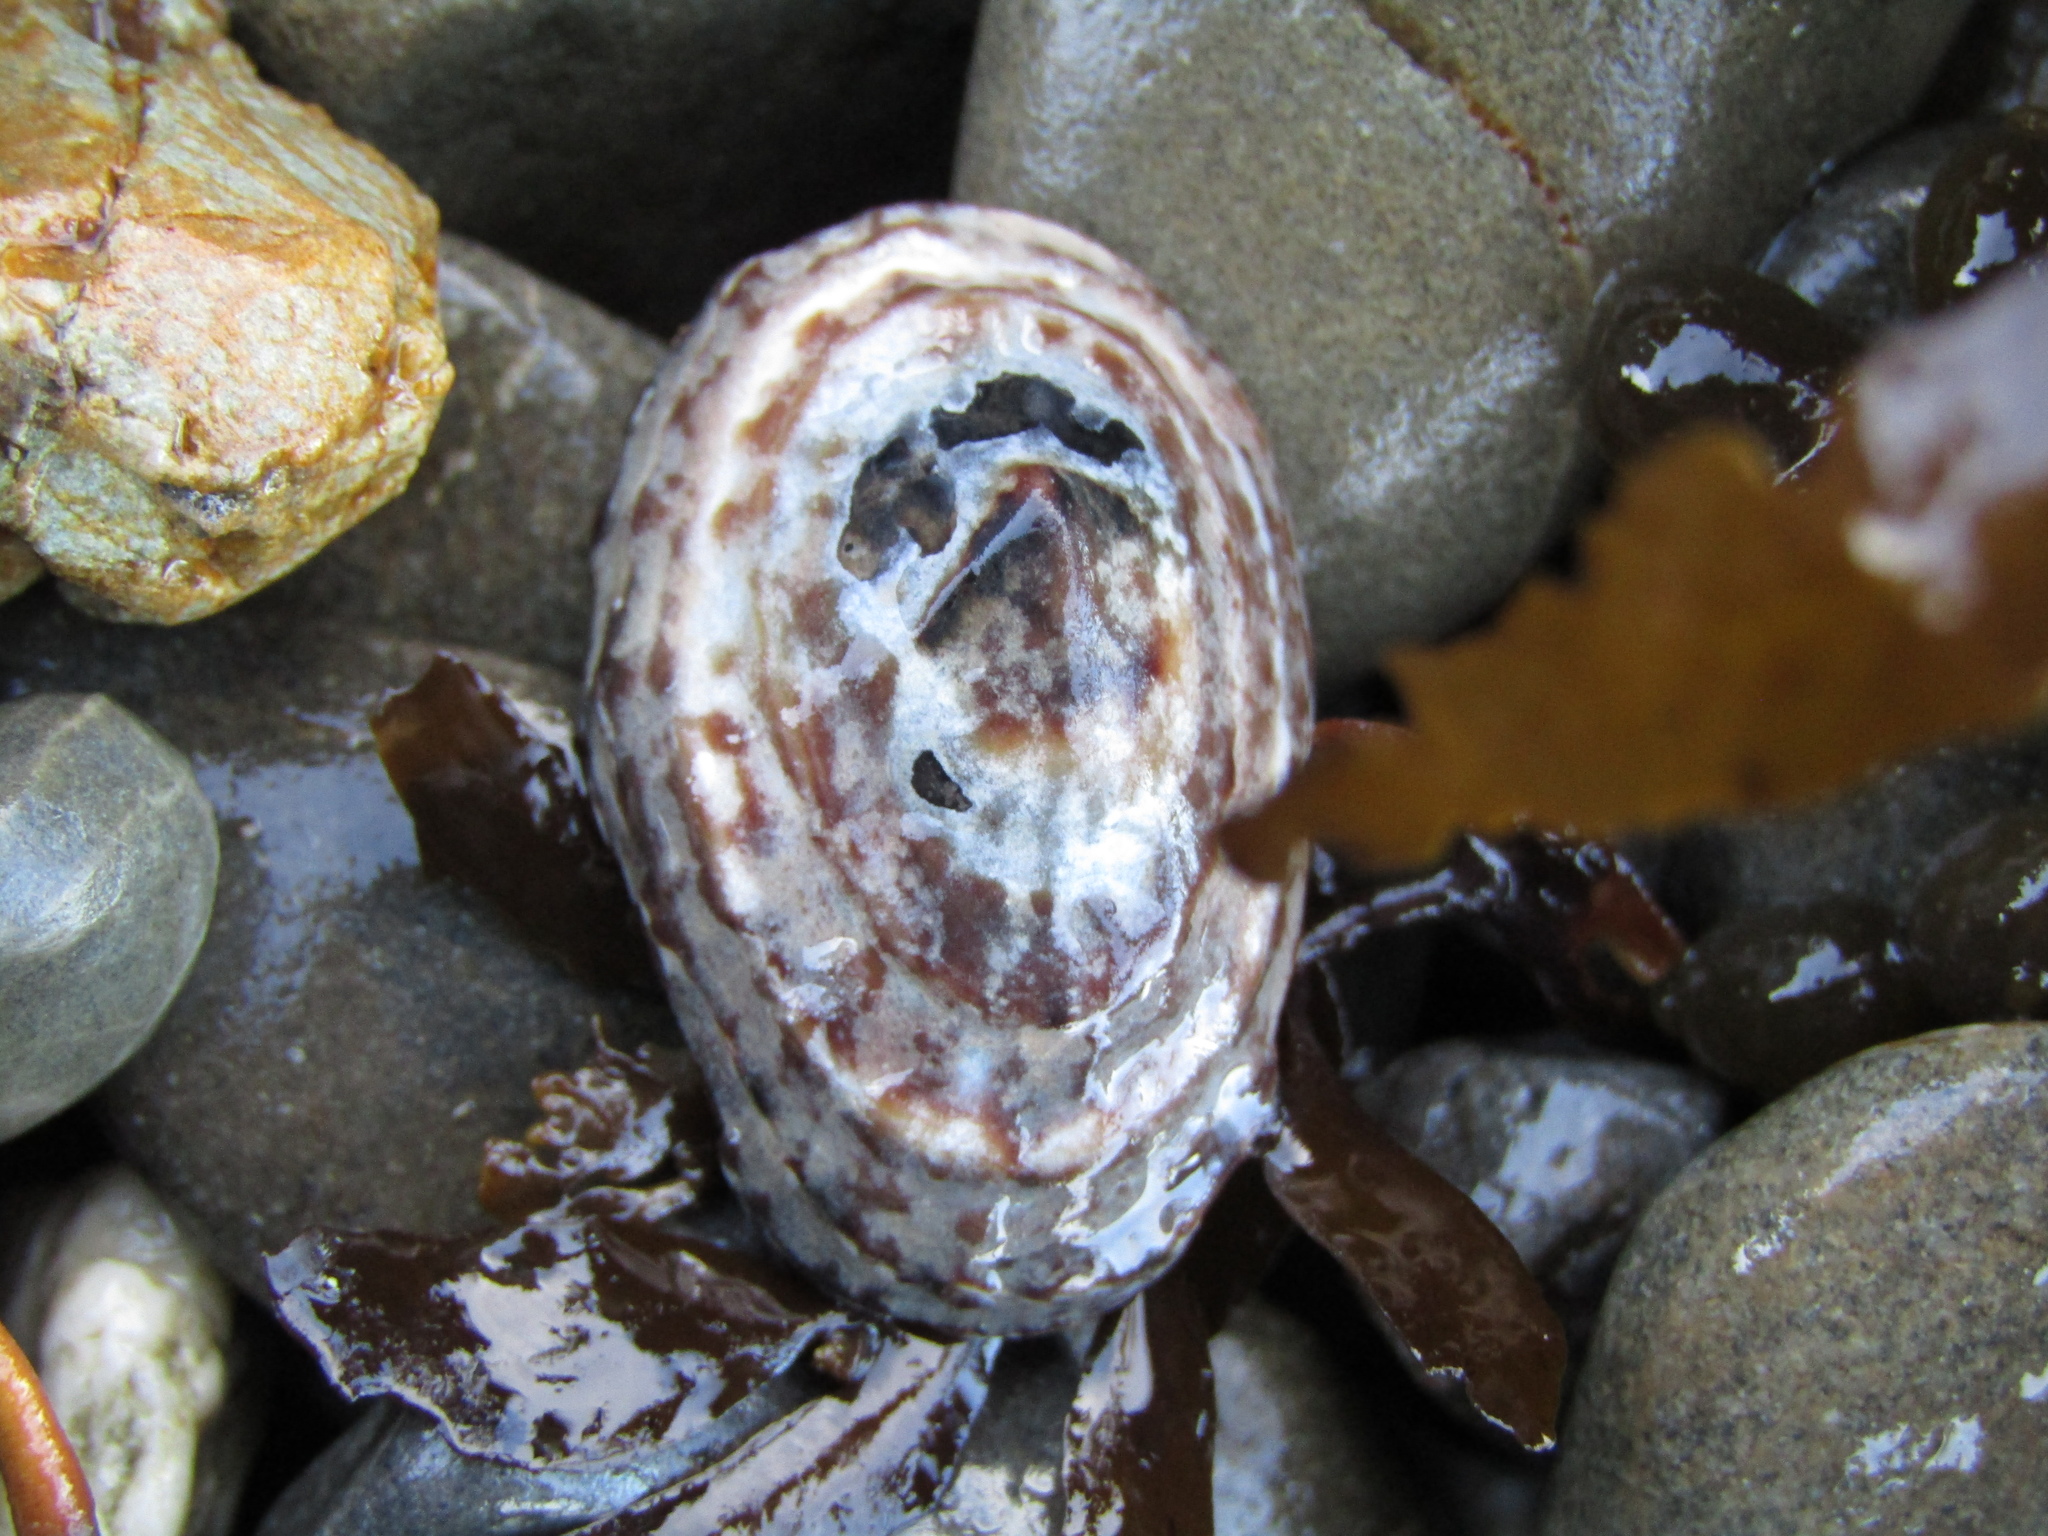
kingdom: Animalia
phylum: Mollusca
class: Gastropoda
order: Siphonariida
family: Siphonariidae
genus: Benhamina
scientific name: Benhamina obliquata
